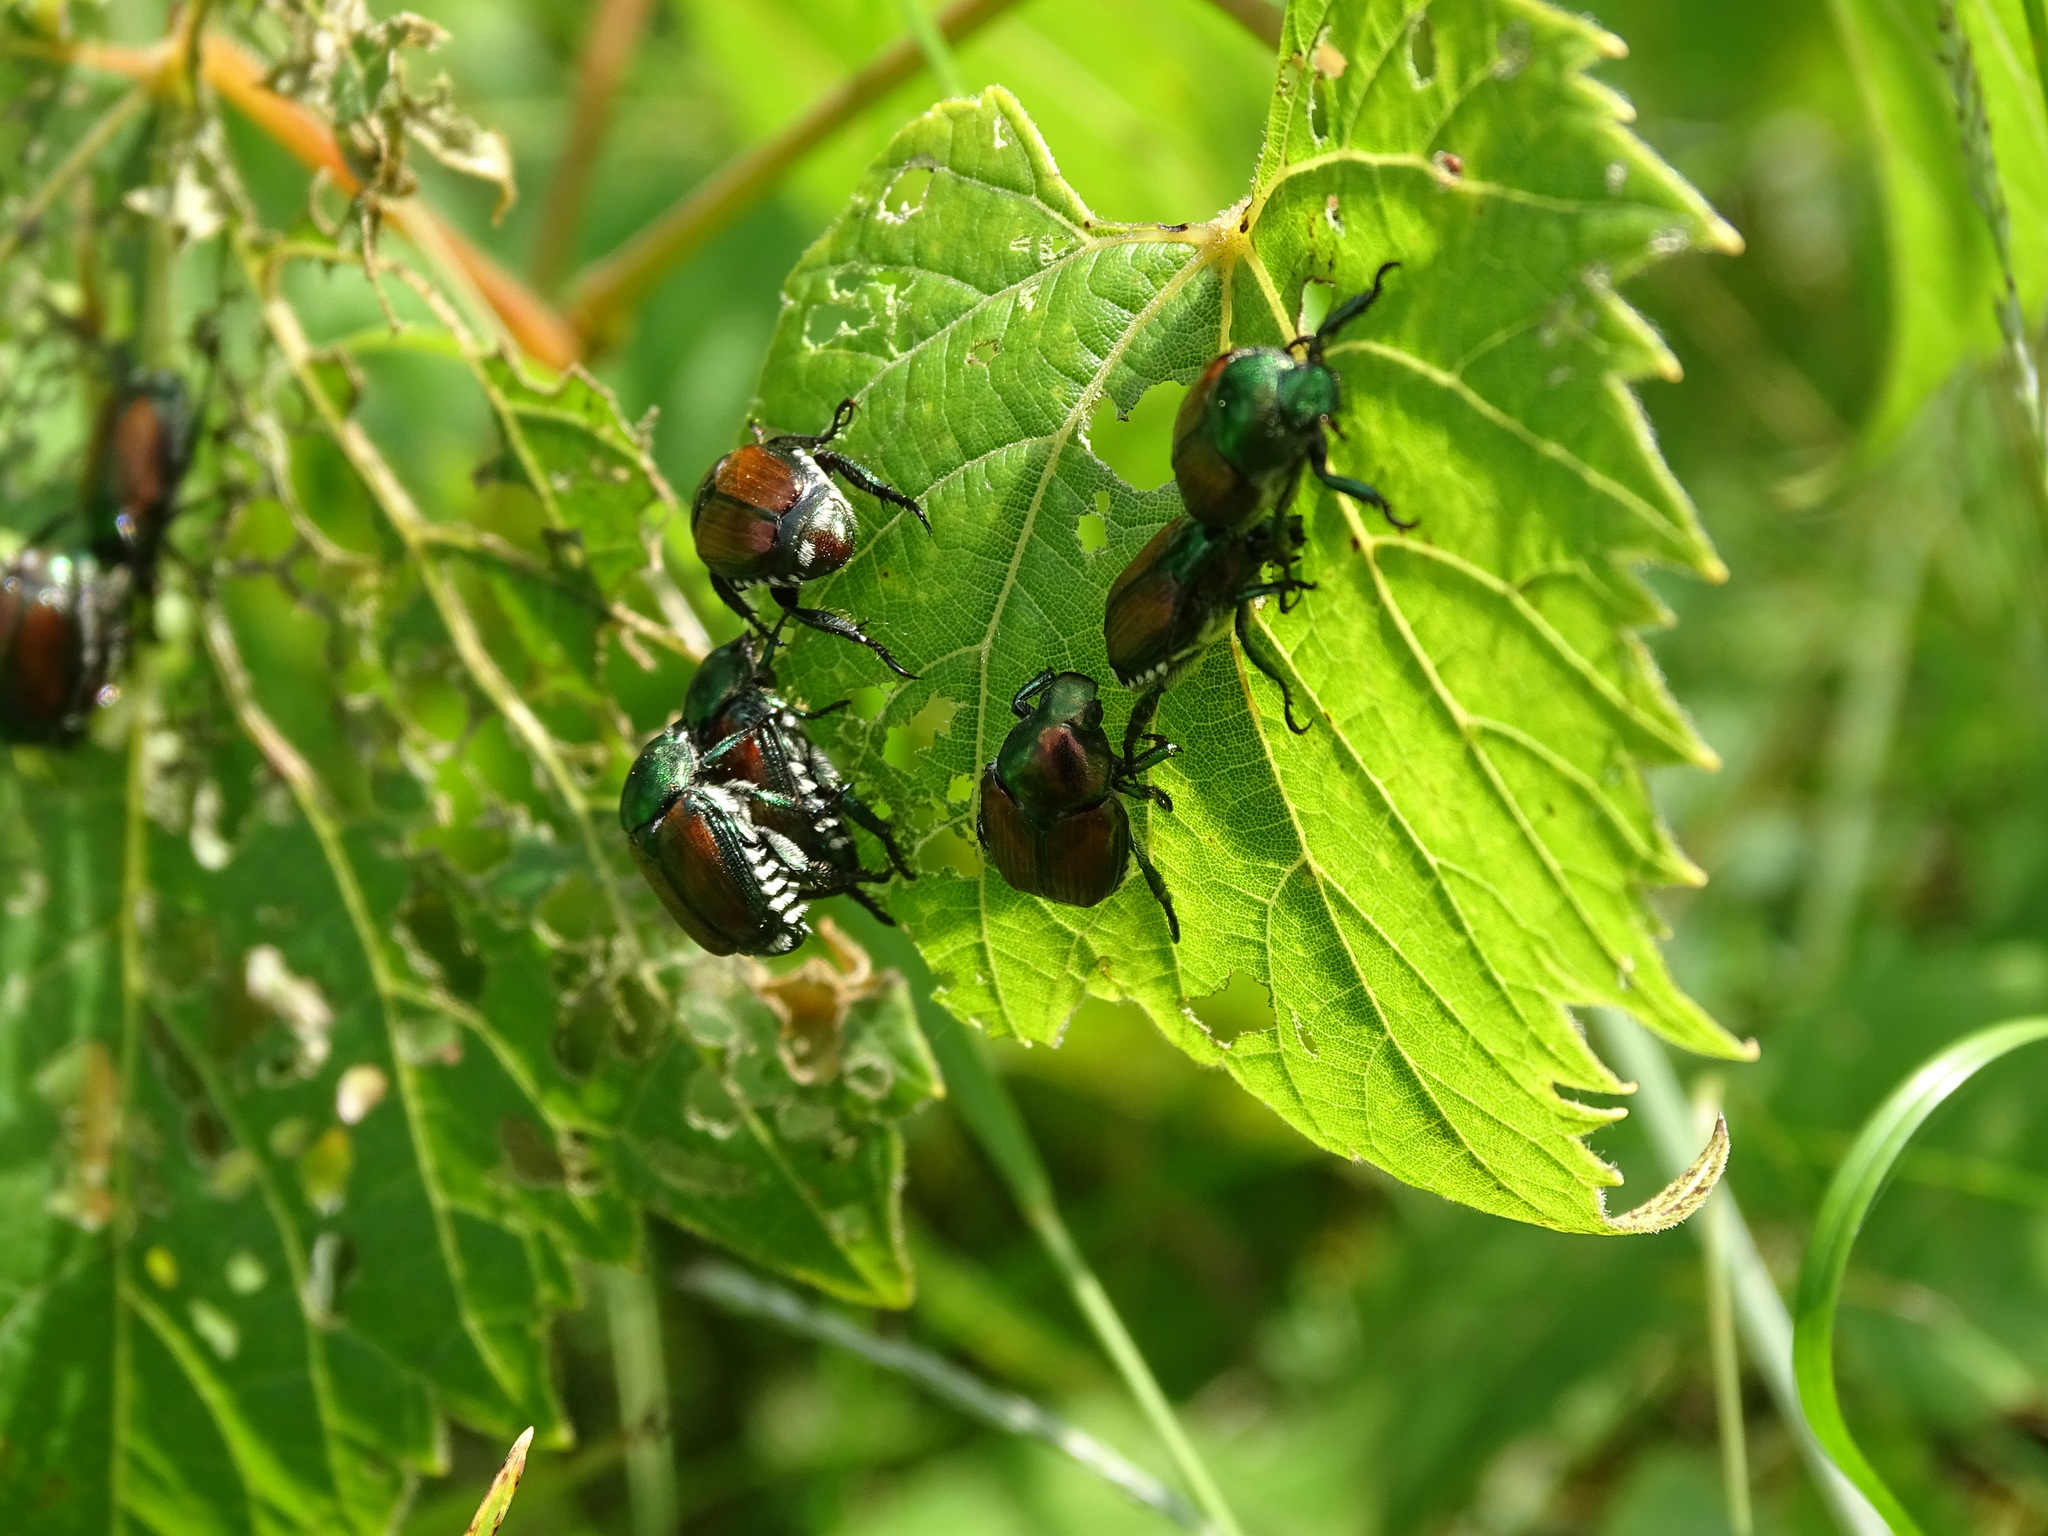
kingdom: Animalia
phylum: Arthropoda
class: Insecta
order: Coleoptera
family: Scarabaeidae
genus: Popillia
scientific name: Popillia japonica
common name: Japanese beetle
